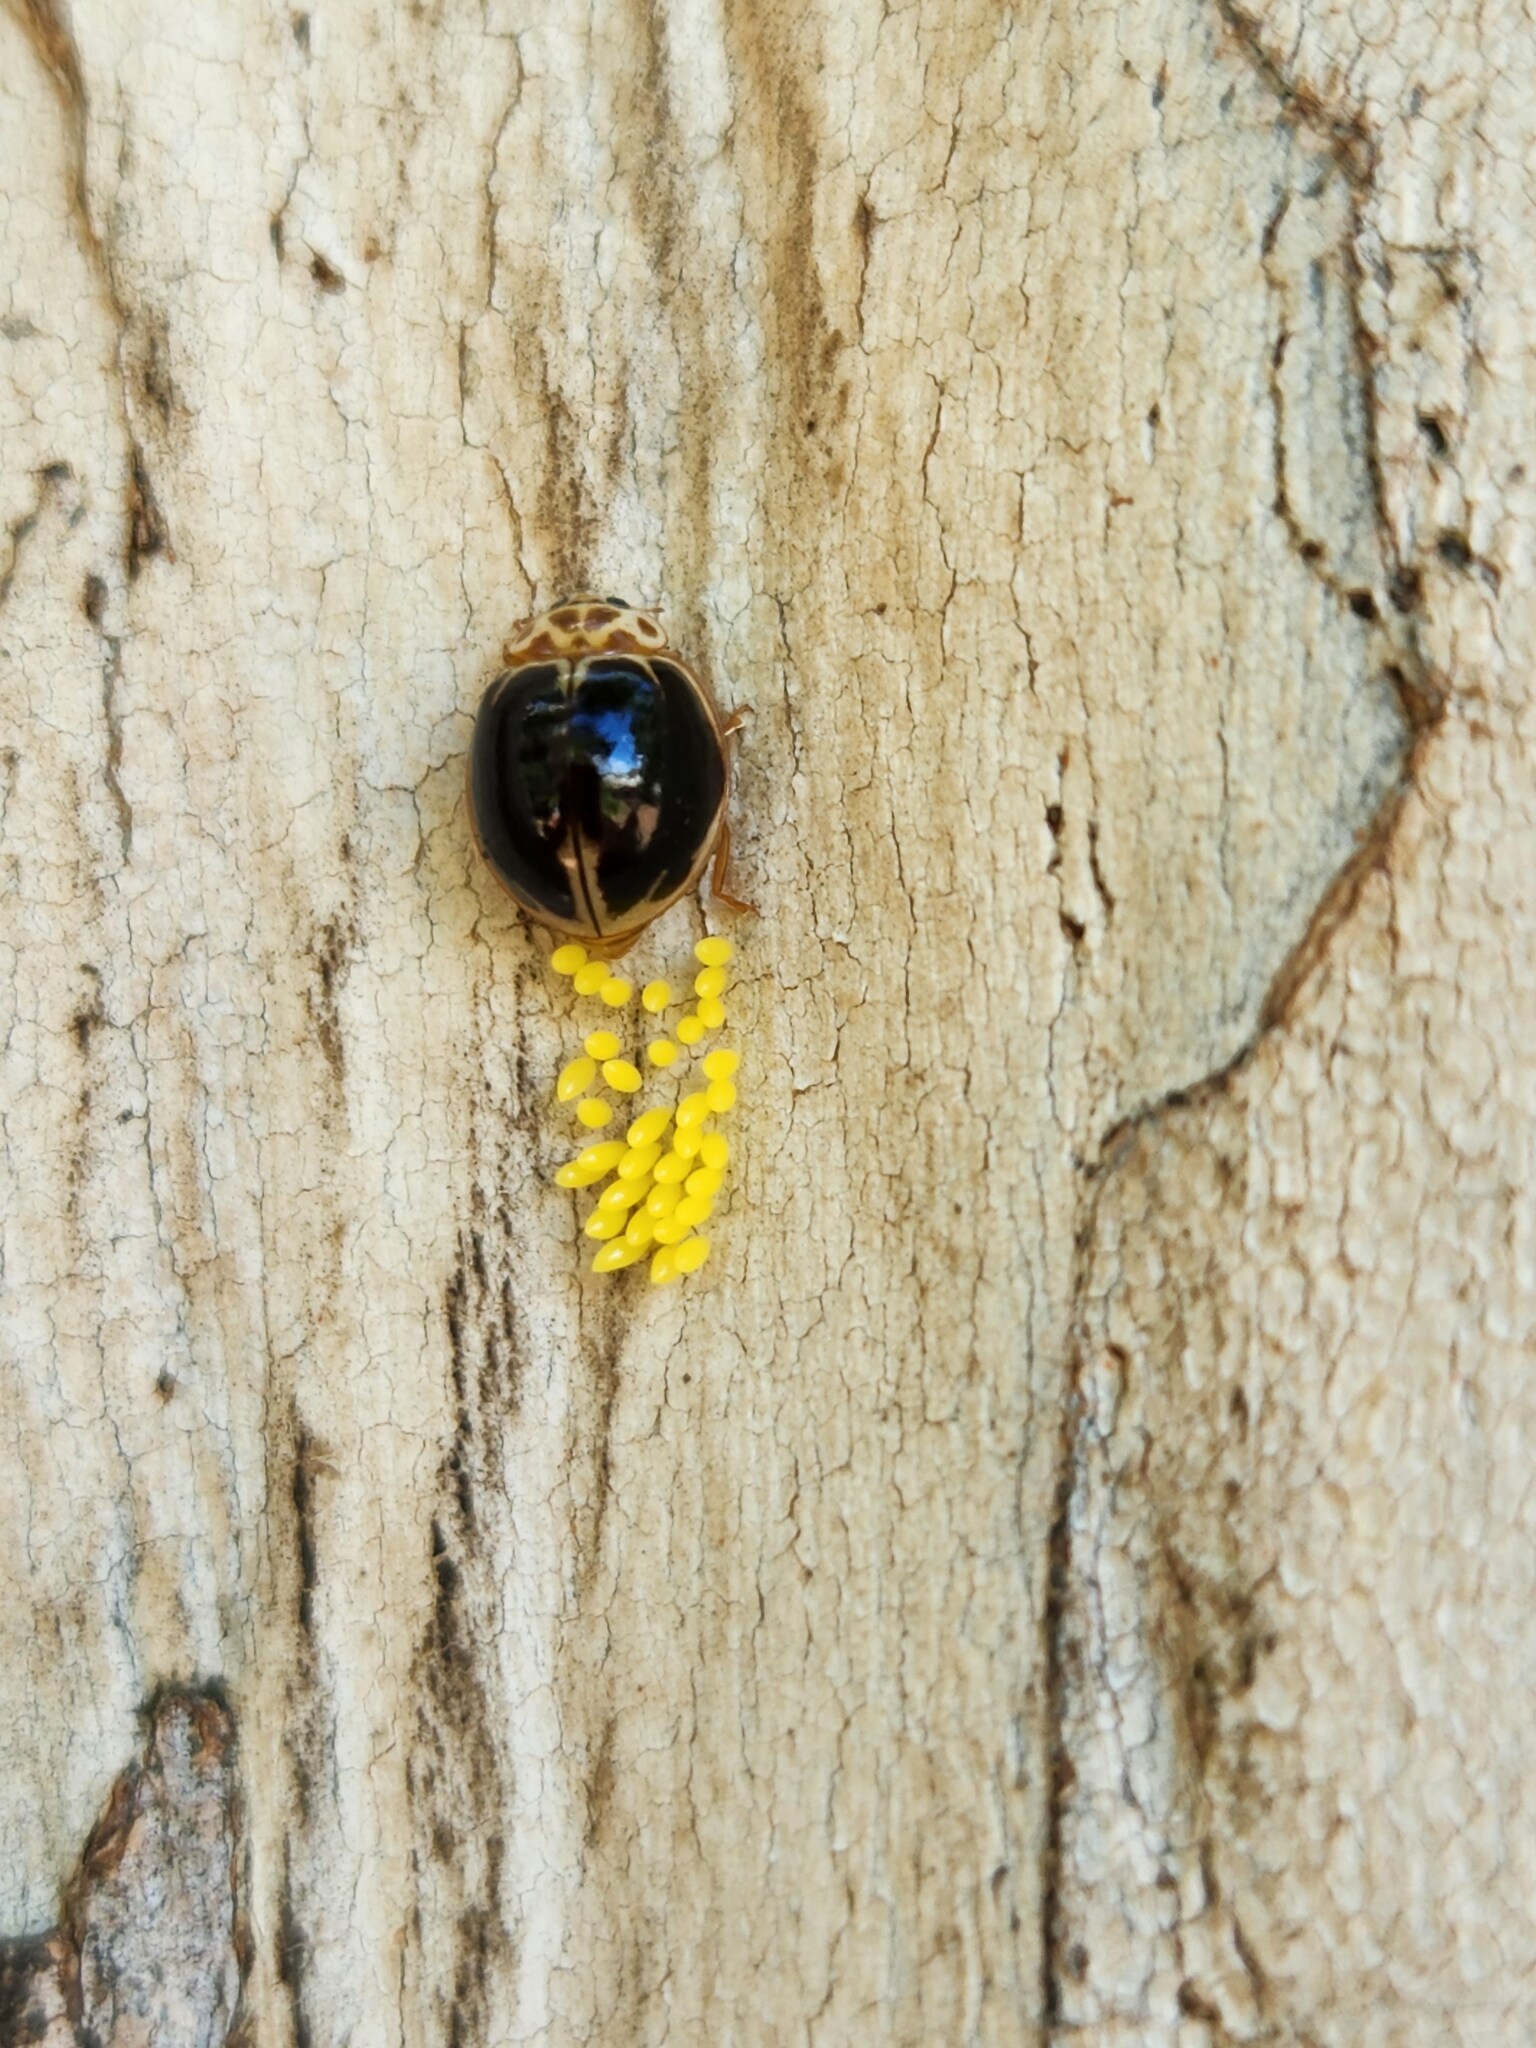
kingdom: Animalia
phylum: Arthropoda
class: Insecta
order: Coleoptera
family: Coccinellidae
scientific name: Coccinellidae
